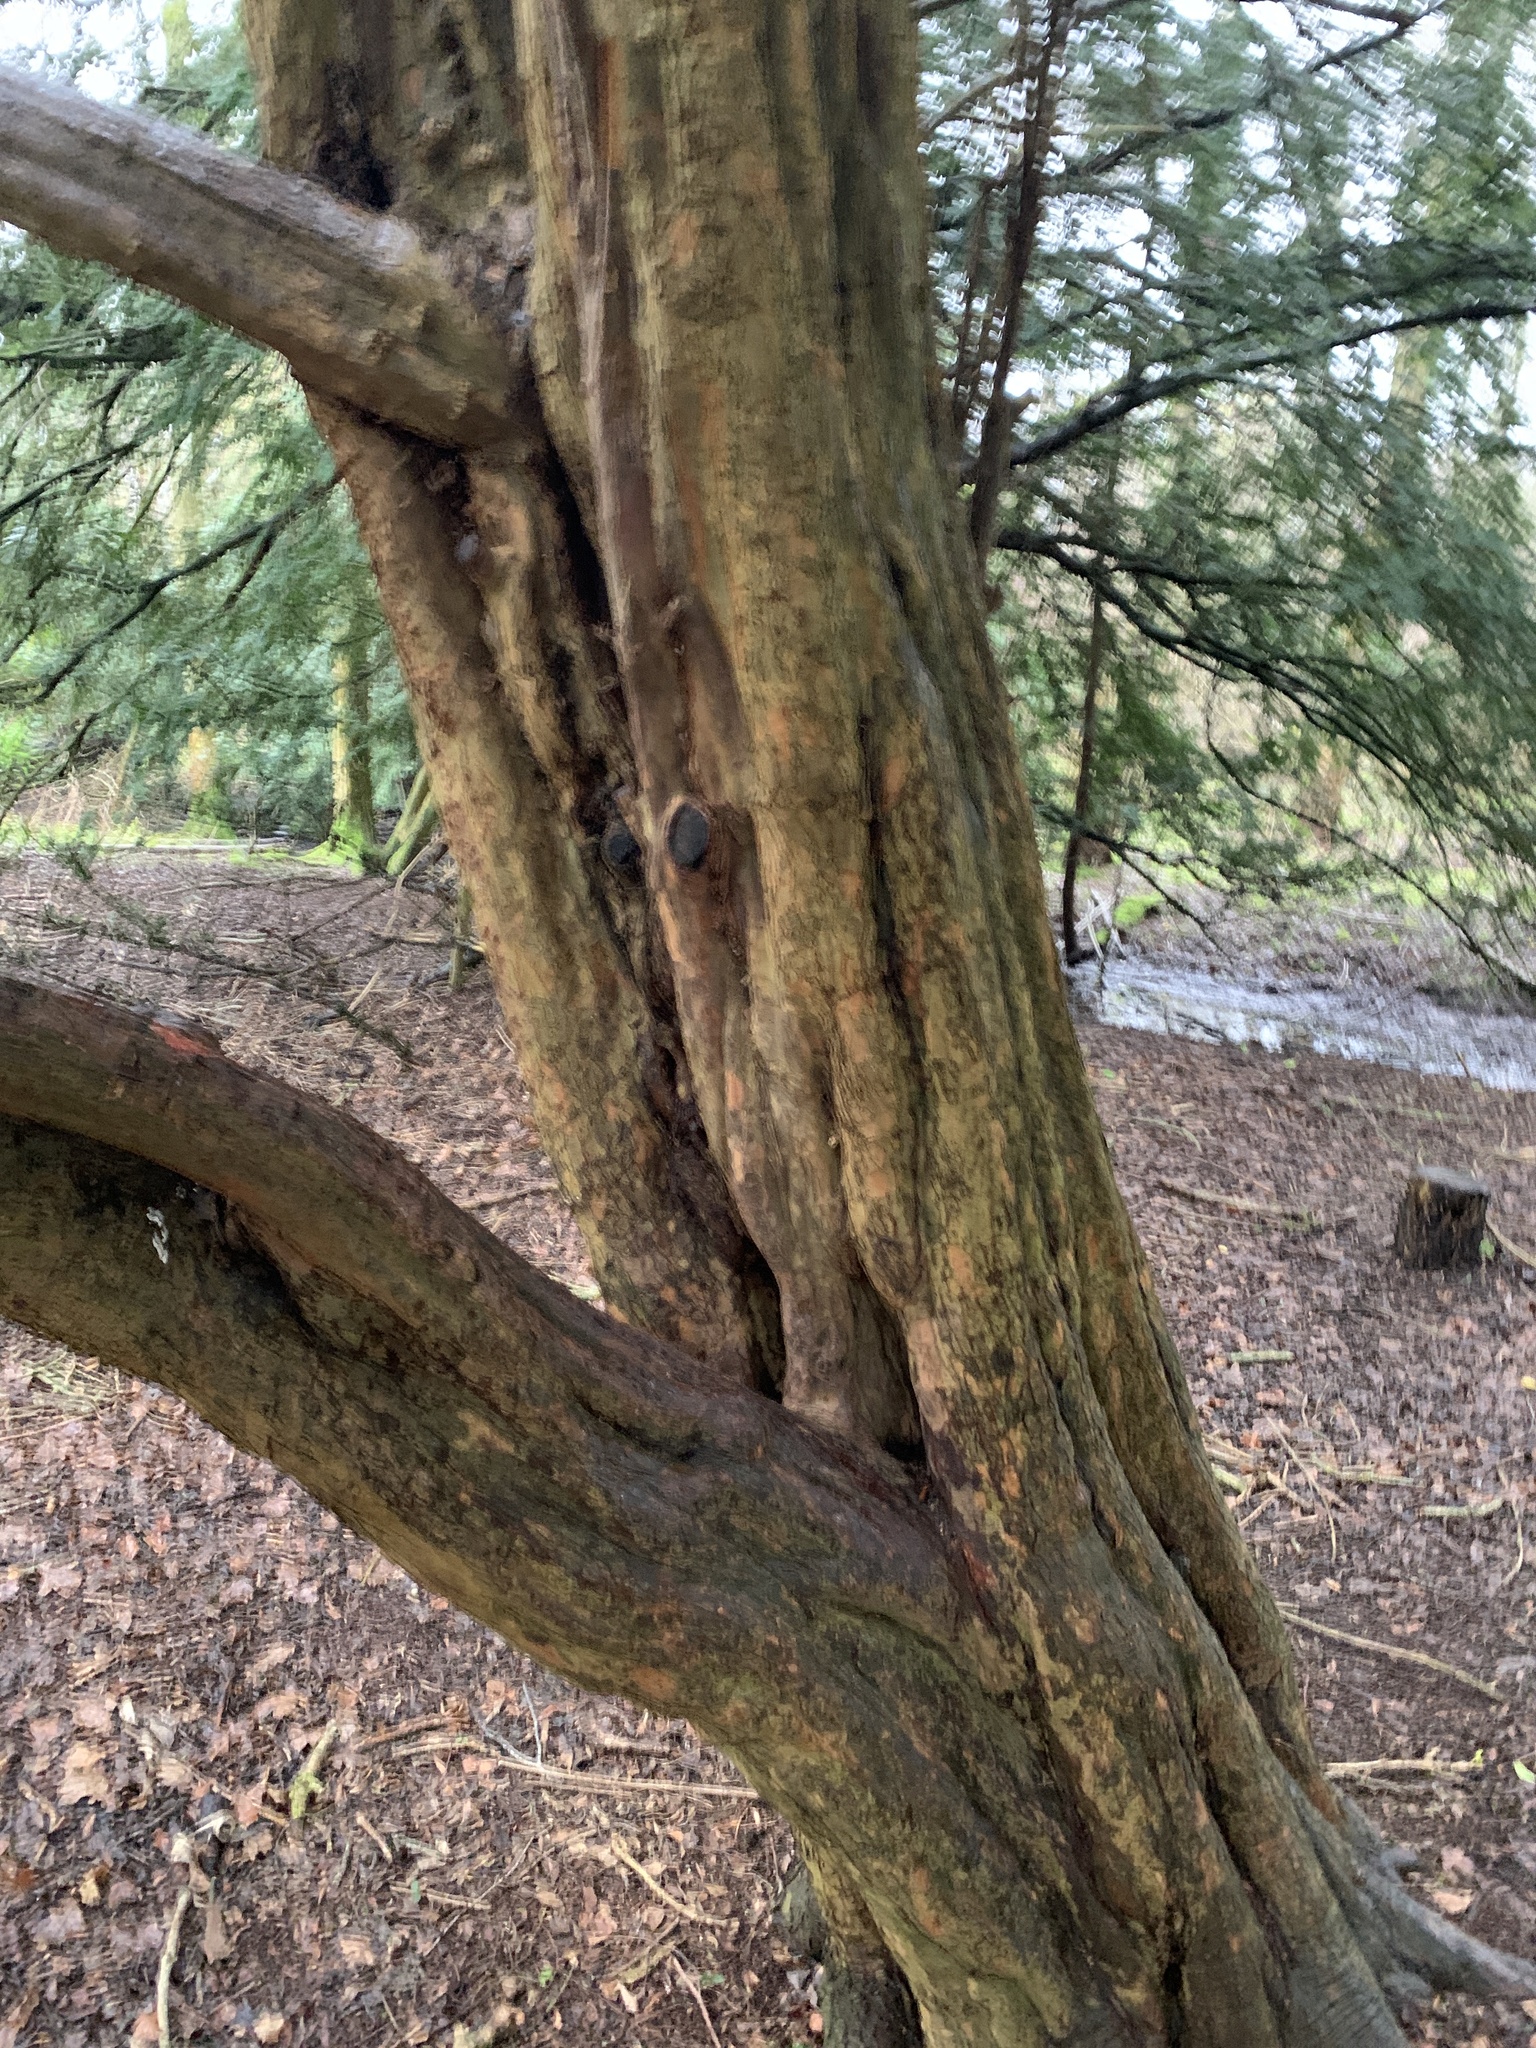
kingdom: Plantae
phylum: Tracheophyta
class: Pinopsida
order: Pinales
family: Taxaceae
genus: Taxus
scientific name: Taxus baccata
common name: Yew
